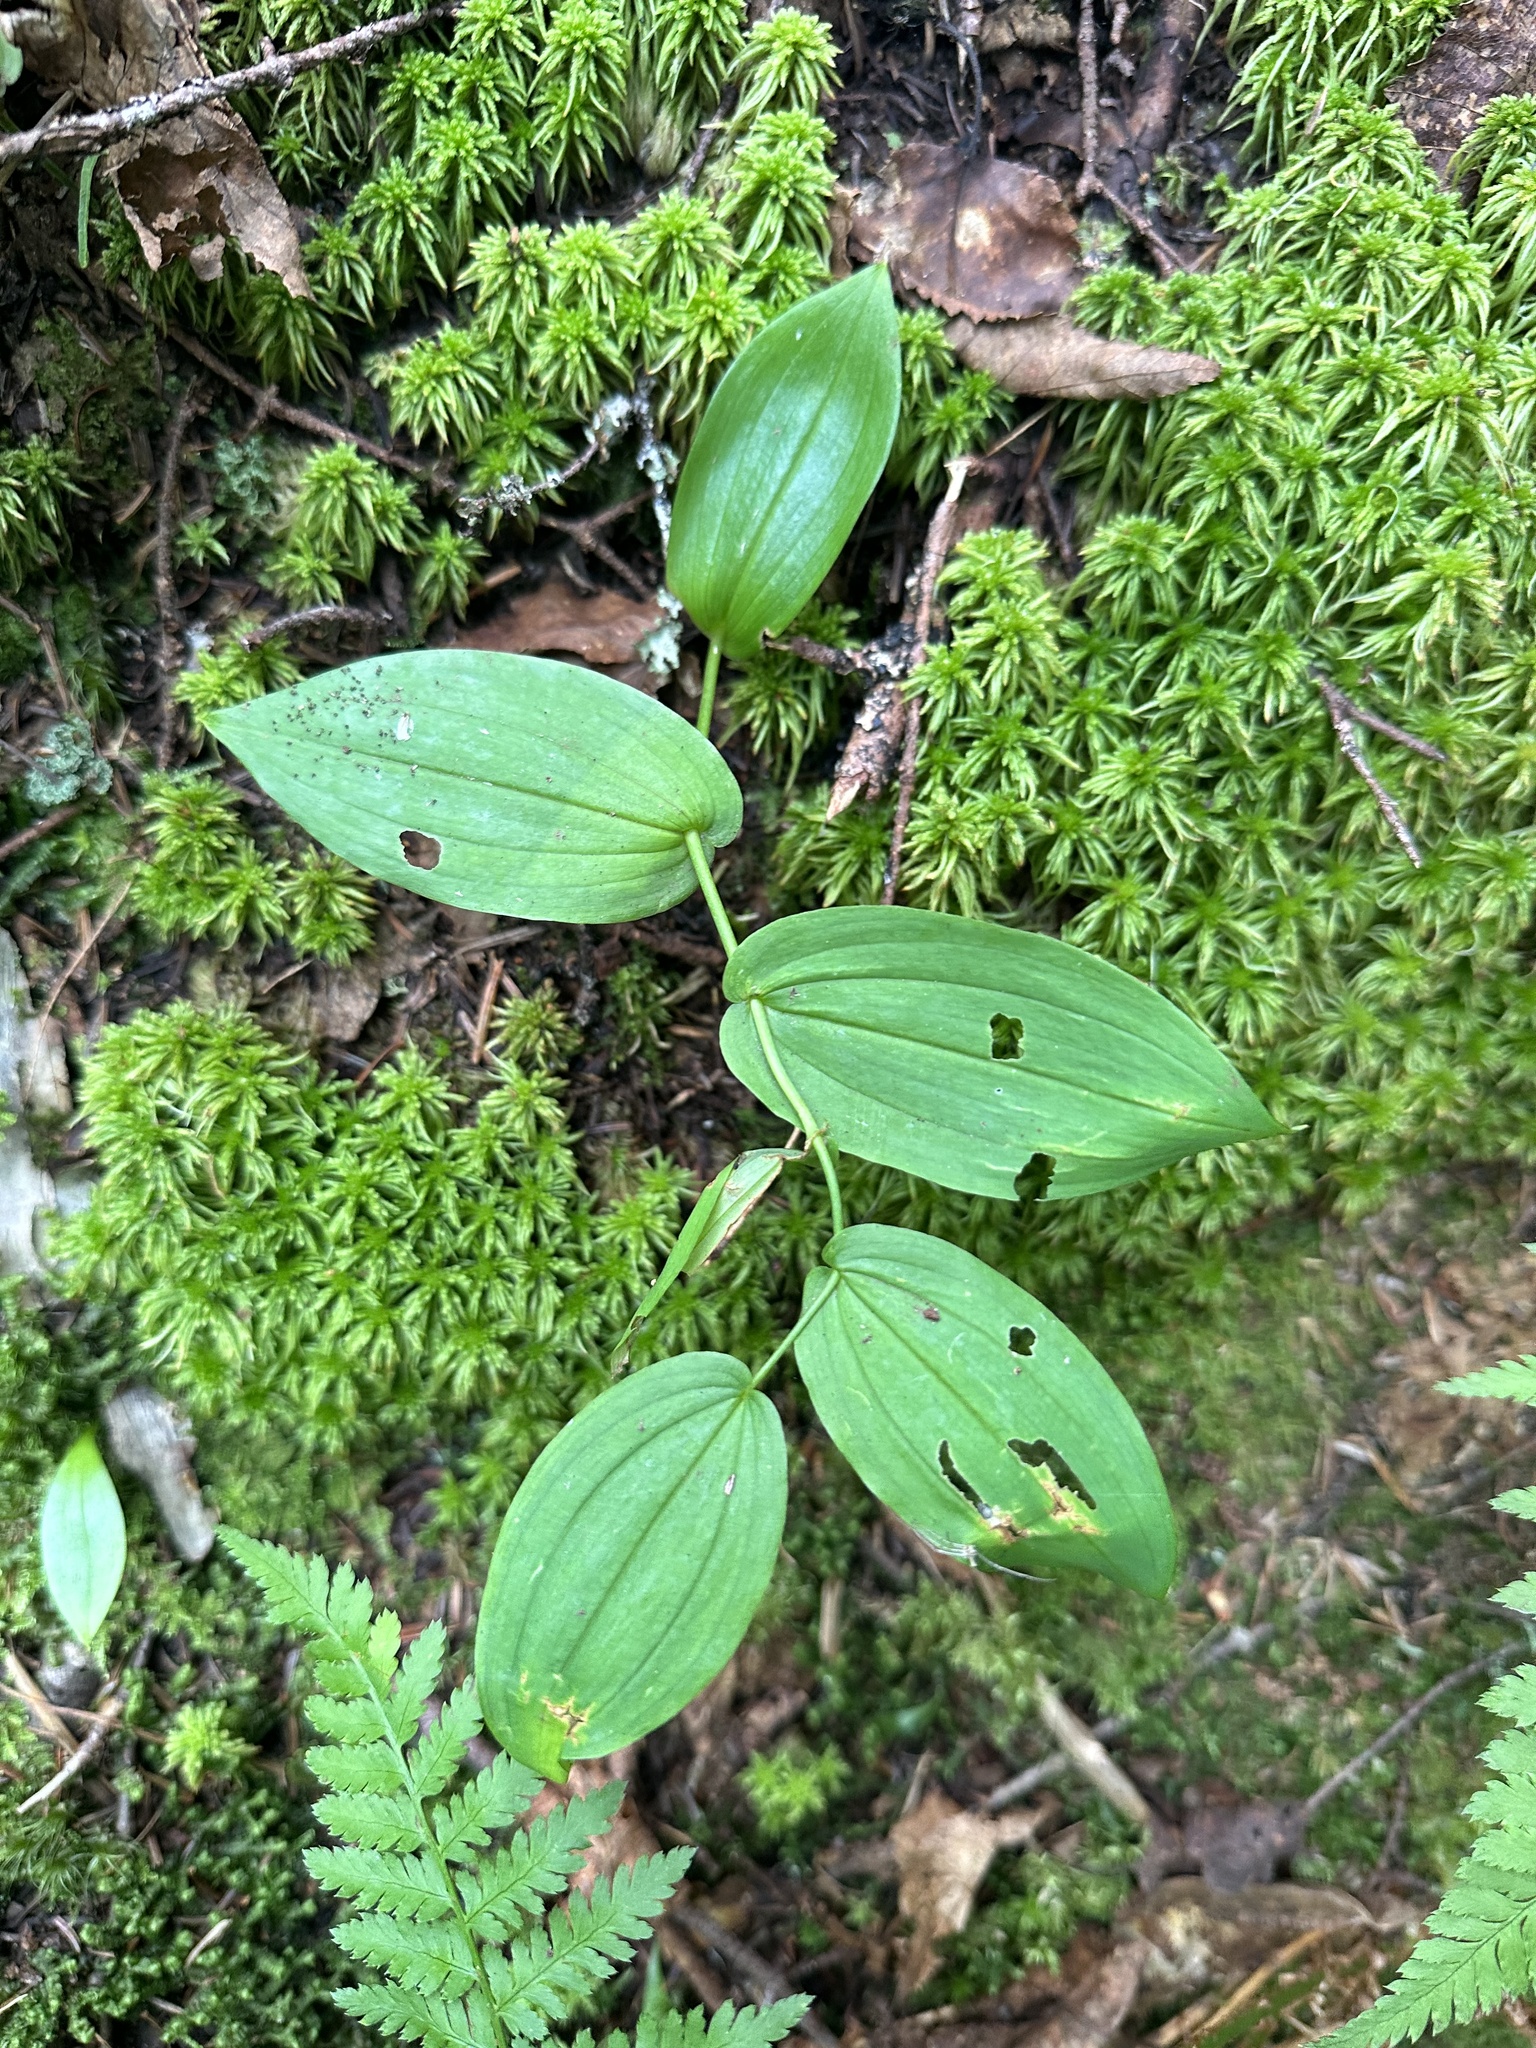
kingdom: Plantae
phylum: Tracheophyta
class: Liliopsida
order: Liliales
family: Liliaceae
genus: Streptopus
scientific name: Streptopus amplexifolius
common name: Clasp twisted stalk
